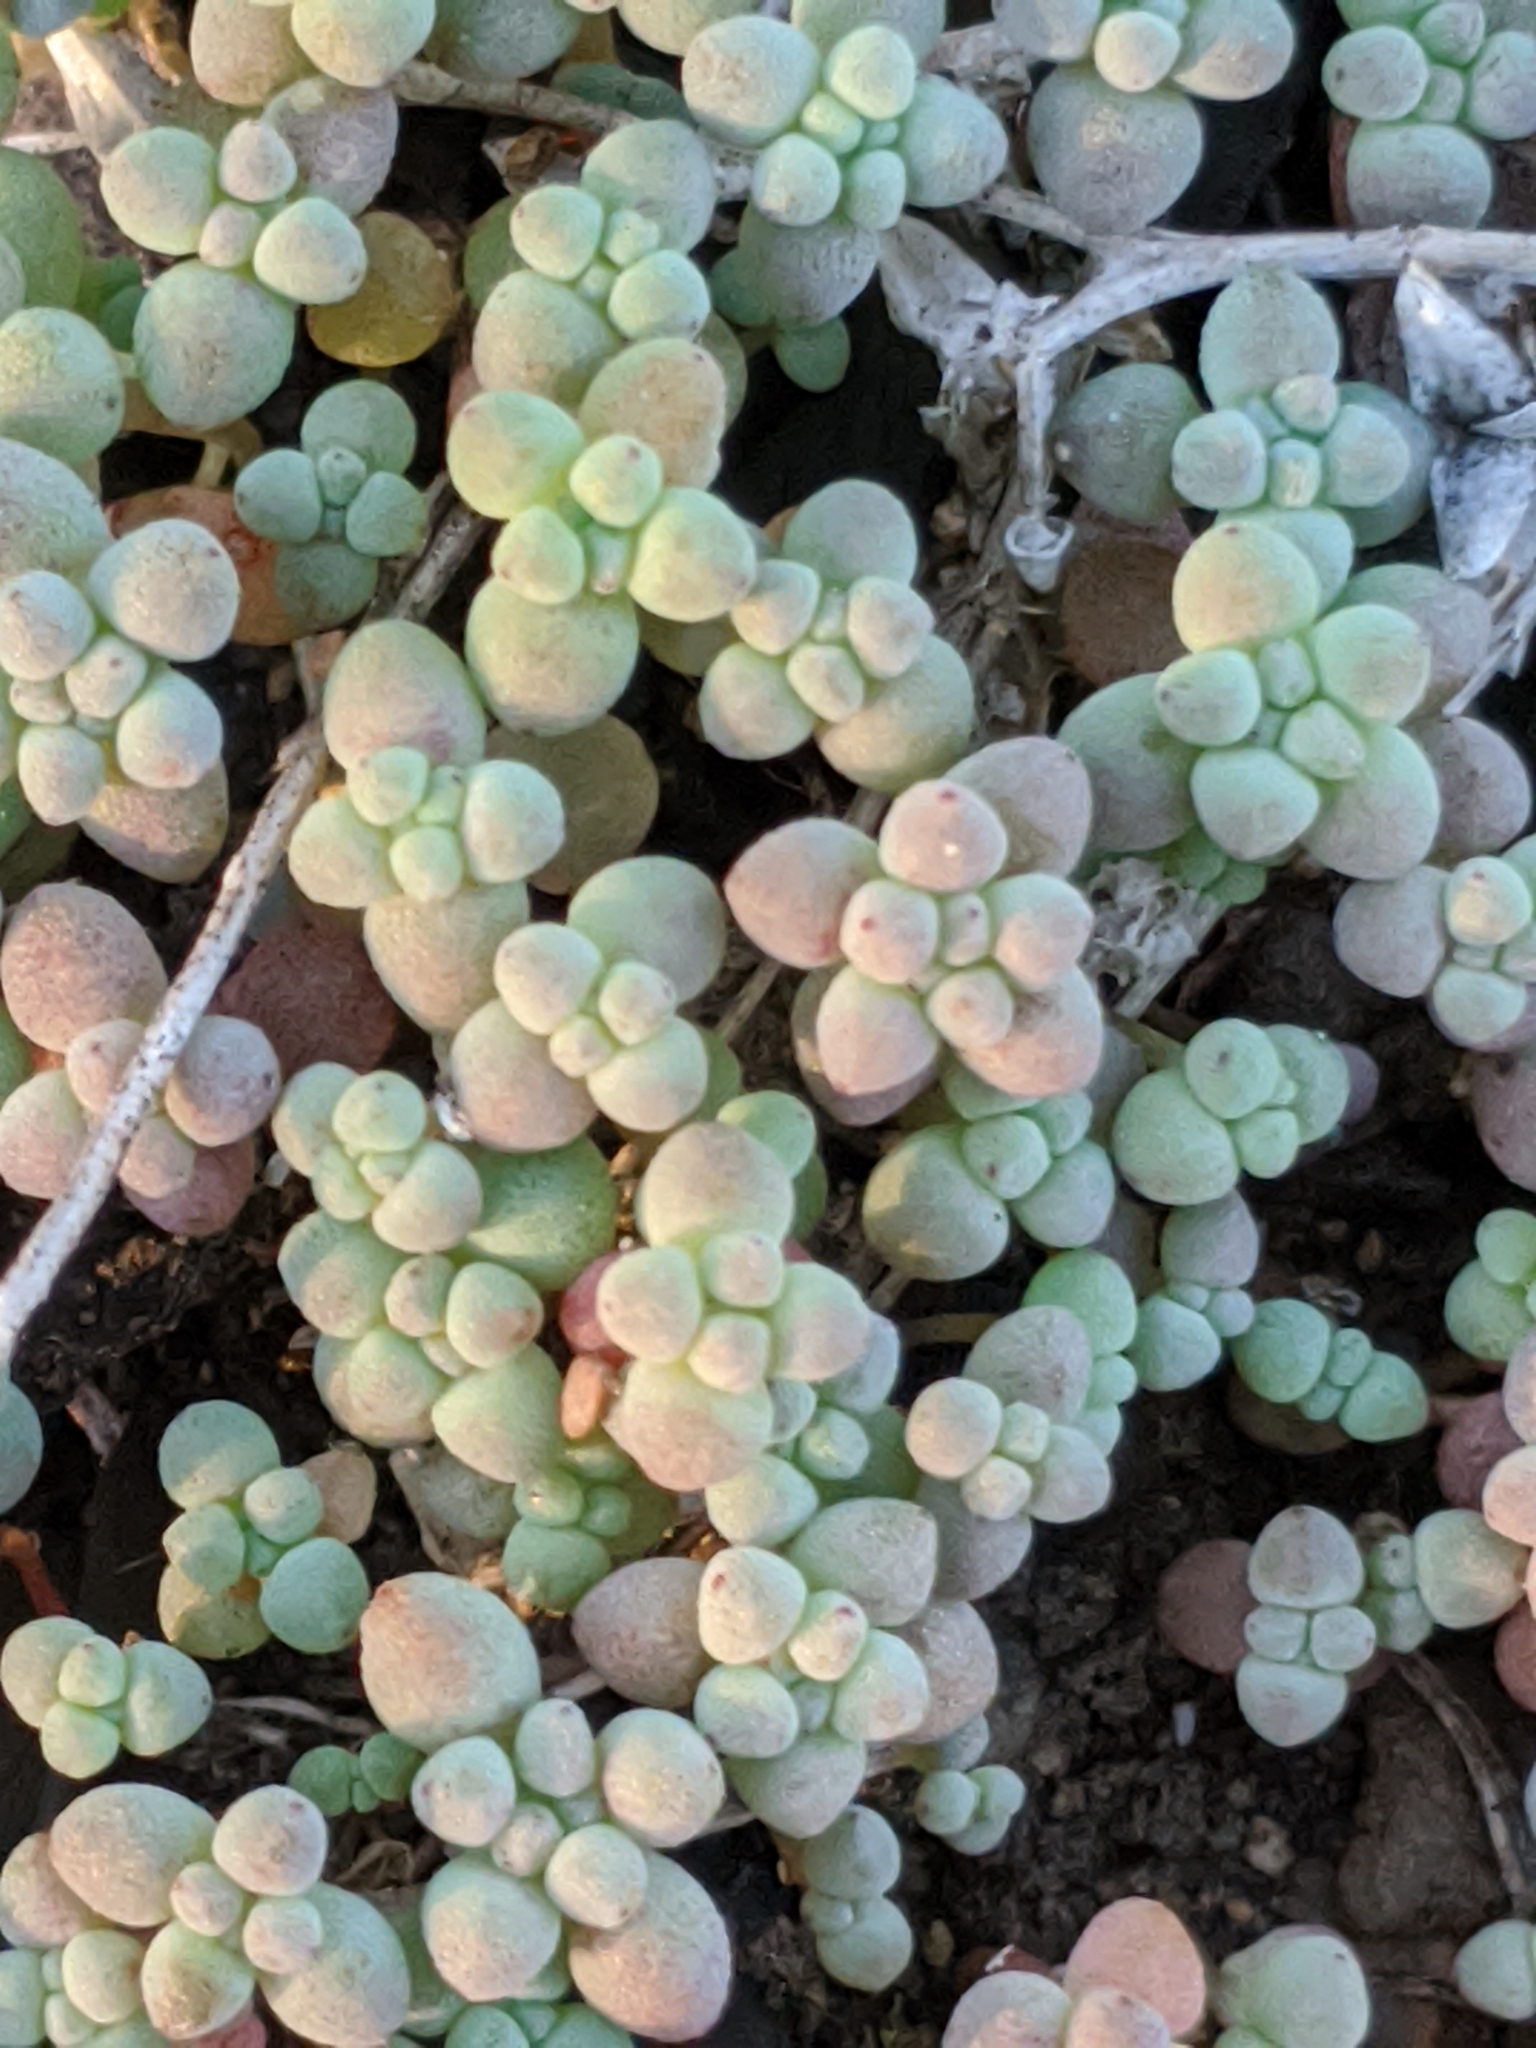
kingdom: Plantae
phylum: Tracheophyta
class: Magnoliopsida
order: Saxifragales
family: Crassulaceae
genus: Sedum
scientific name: Sedum nuttallii
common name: Yellow stonecrop
